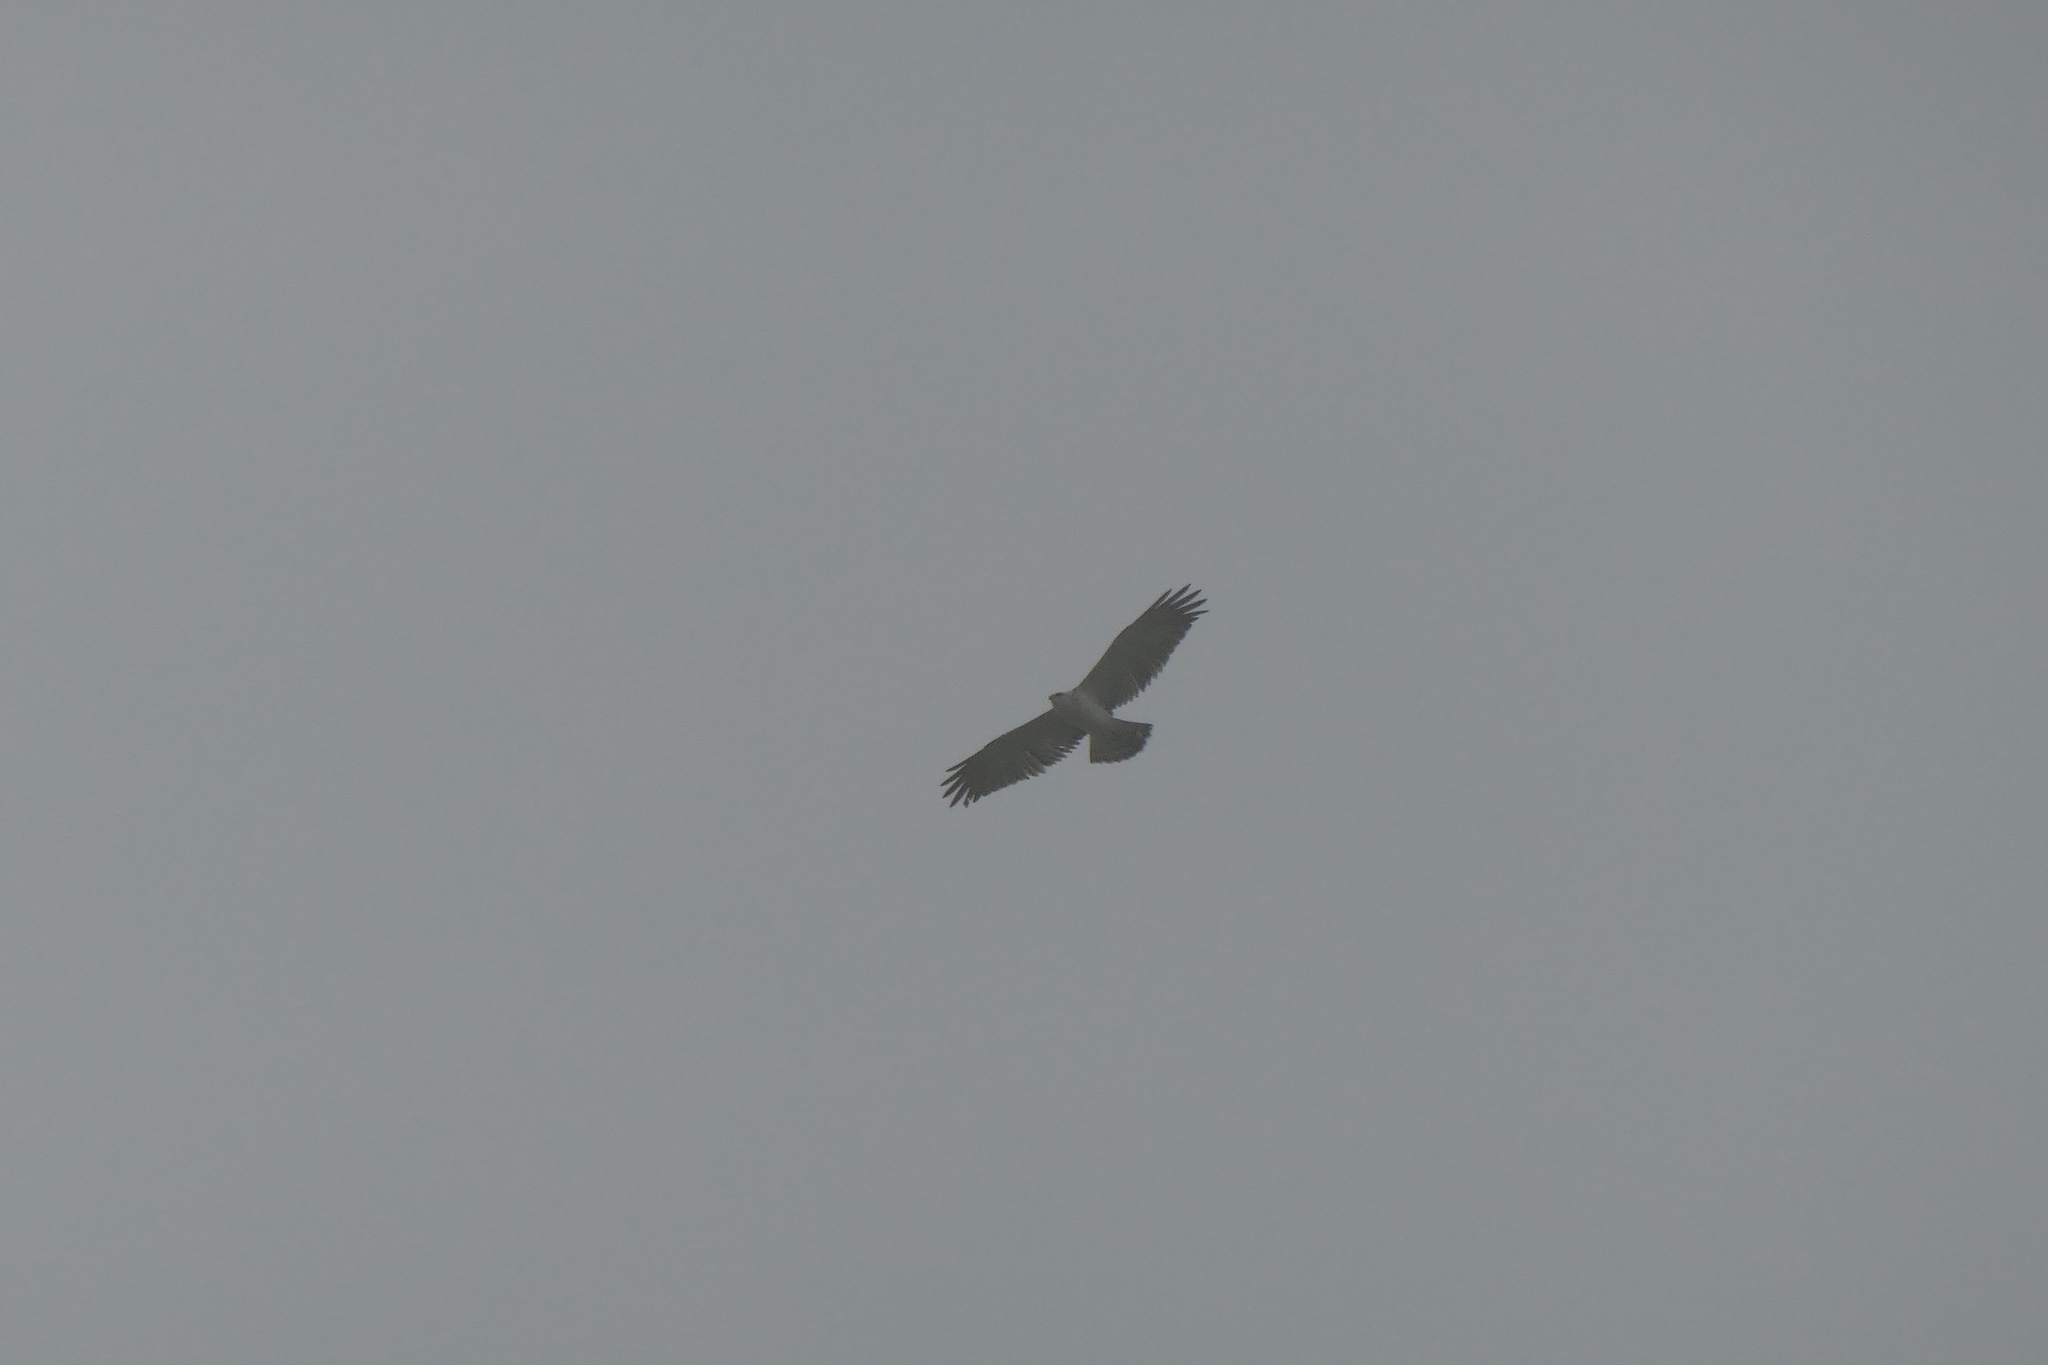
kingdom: Animalia
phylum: Chordata
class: Aves
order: Accipitriformes
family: Accipitridae
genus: Circaetus
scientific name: Circaetus gallicus
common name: Short-toed snake eagle
